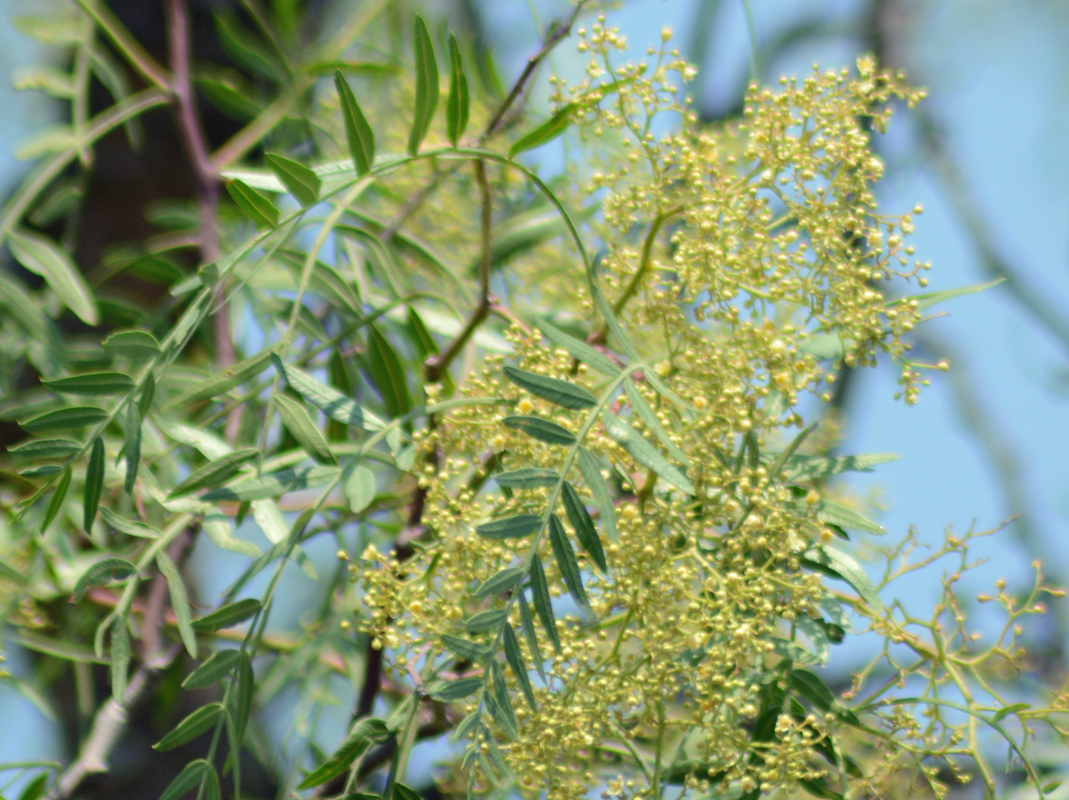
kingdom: Plantae
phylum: Tracheophyta
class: Magnoliopsida
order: Sapindales
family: Anacardiaceae
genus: Schinus
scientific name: Schinus molle
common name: Peruvian peppertree
